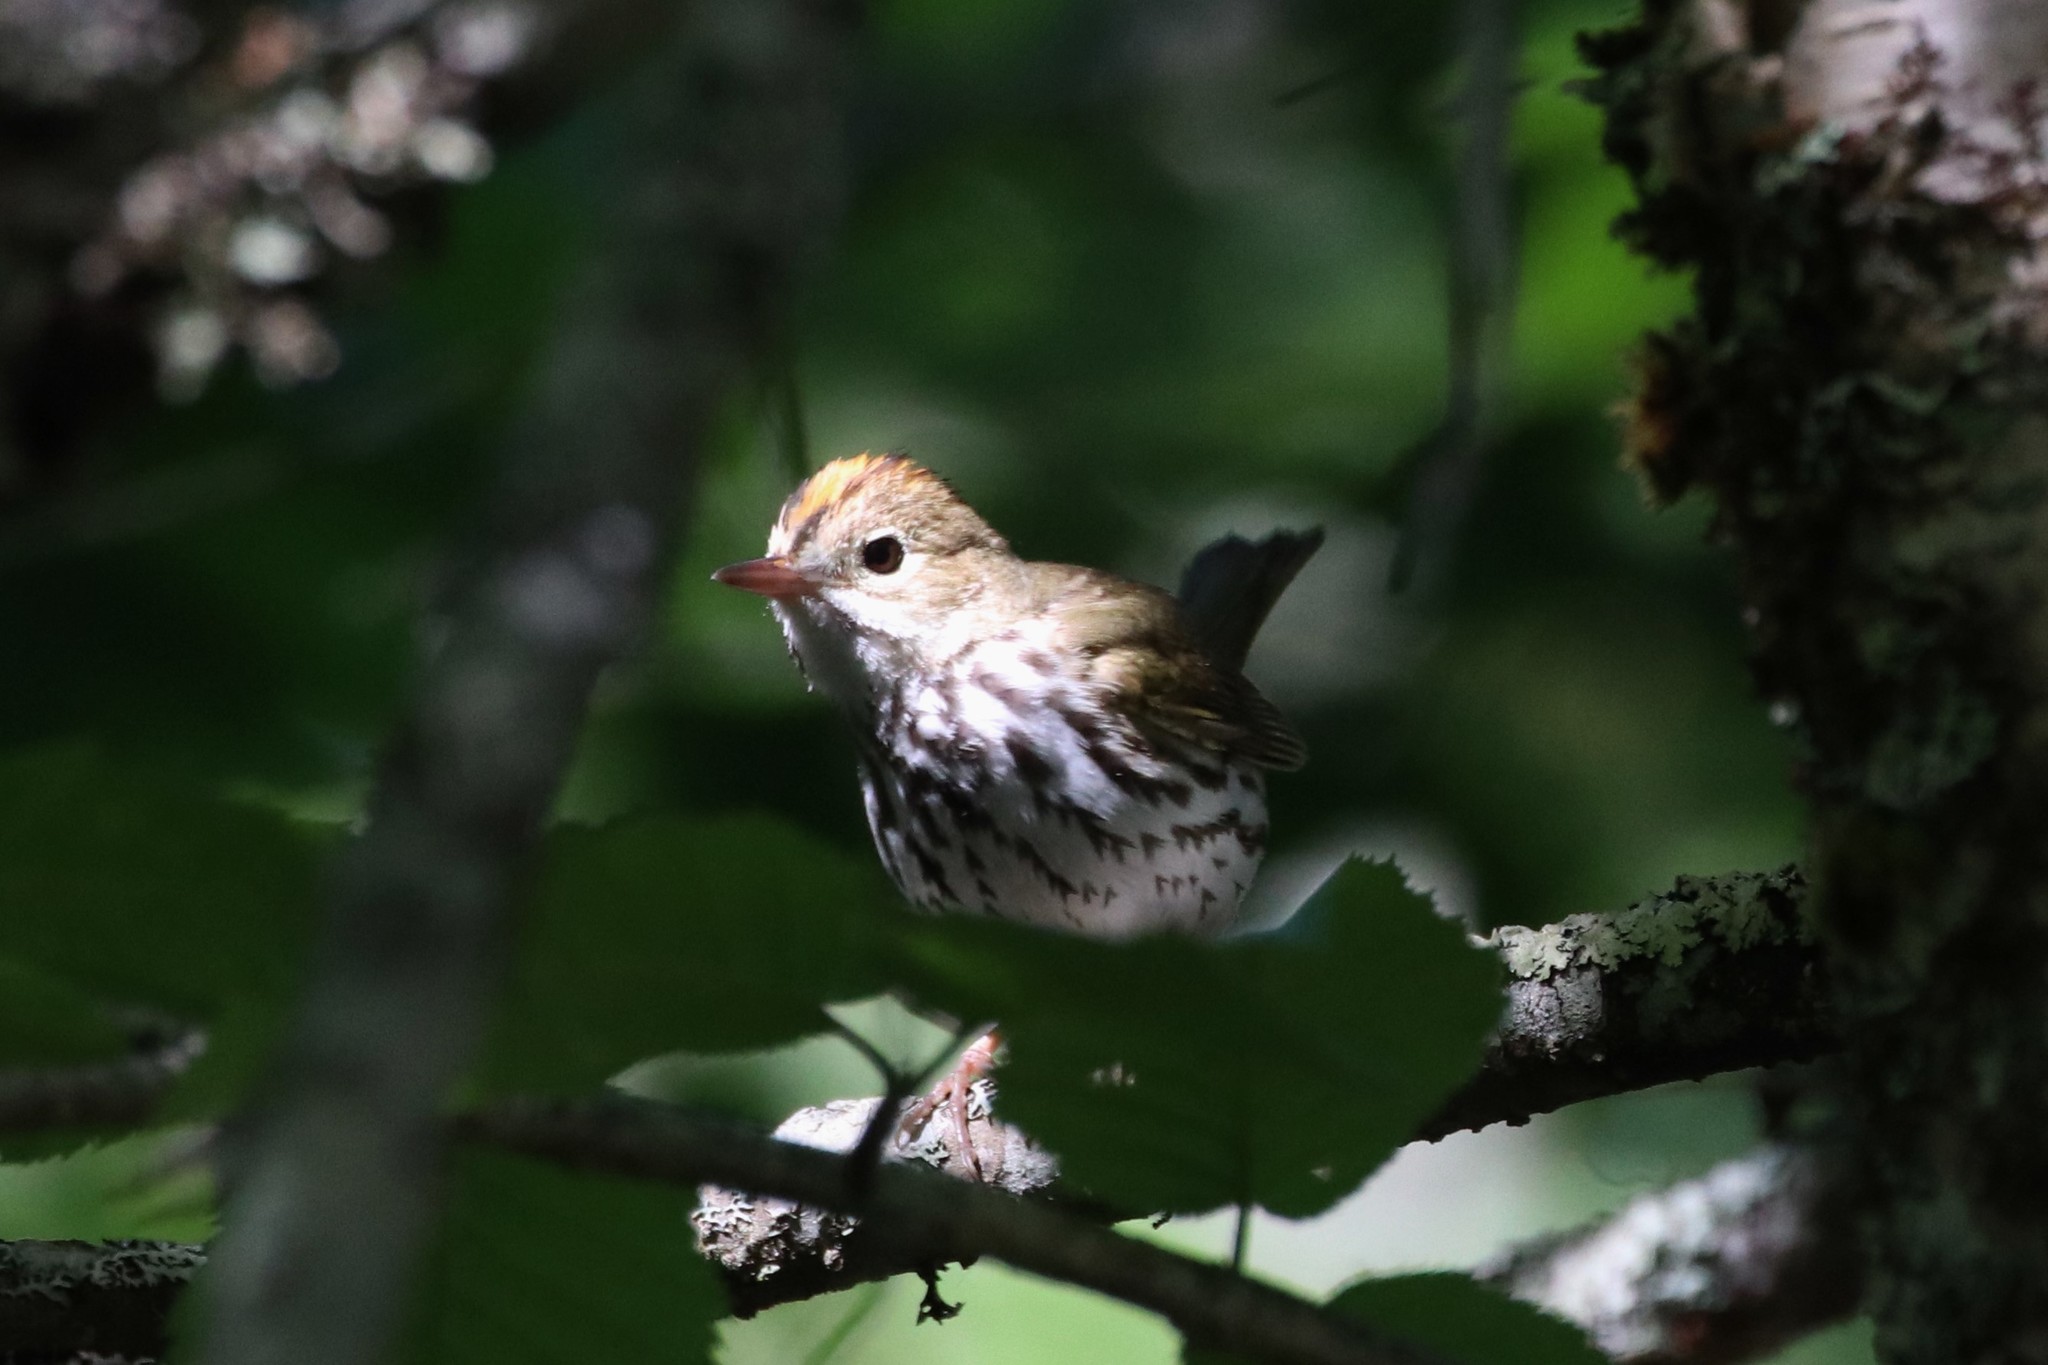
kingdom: Animalia
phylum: Chordata
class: Aves
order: Passeriformes
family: Parulidae
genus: Seiurus
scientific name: Seiurus aurocapilla
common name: Ovenbird
